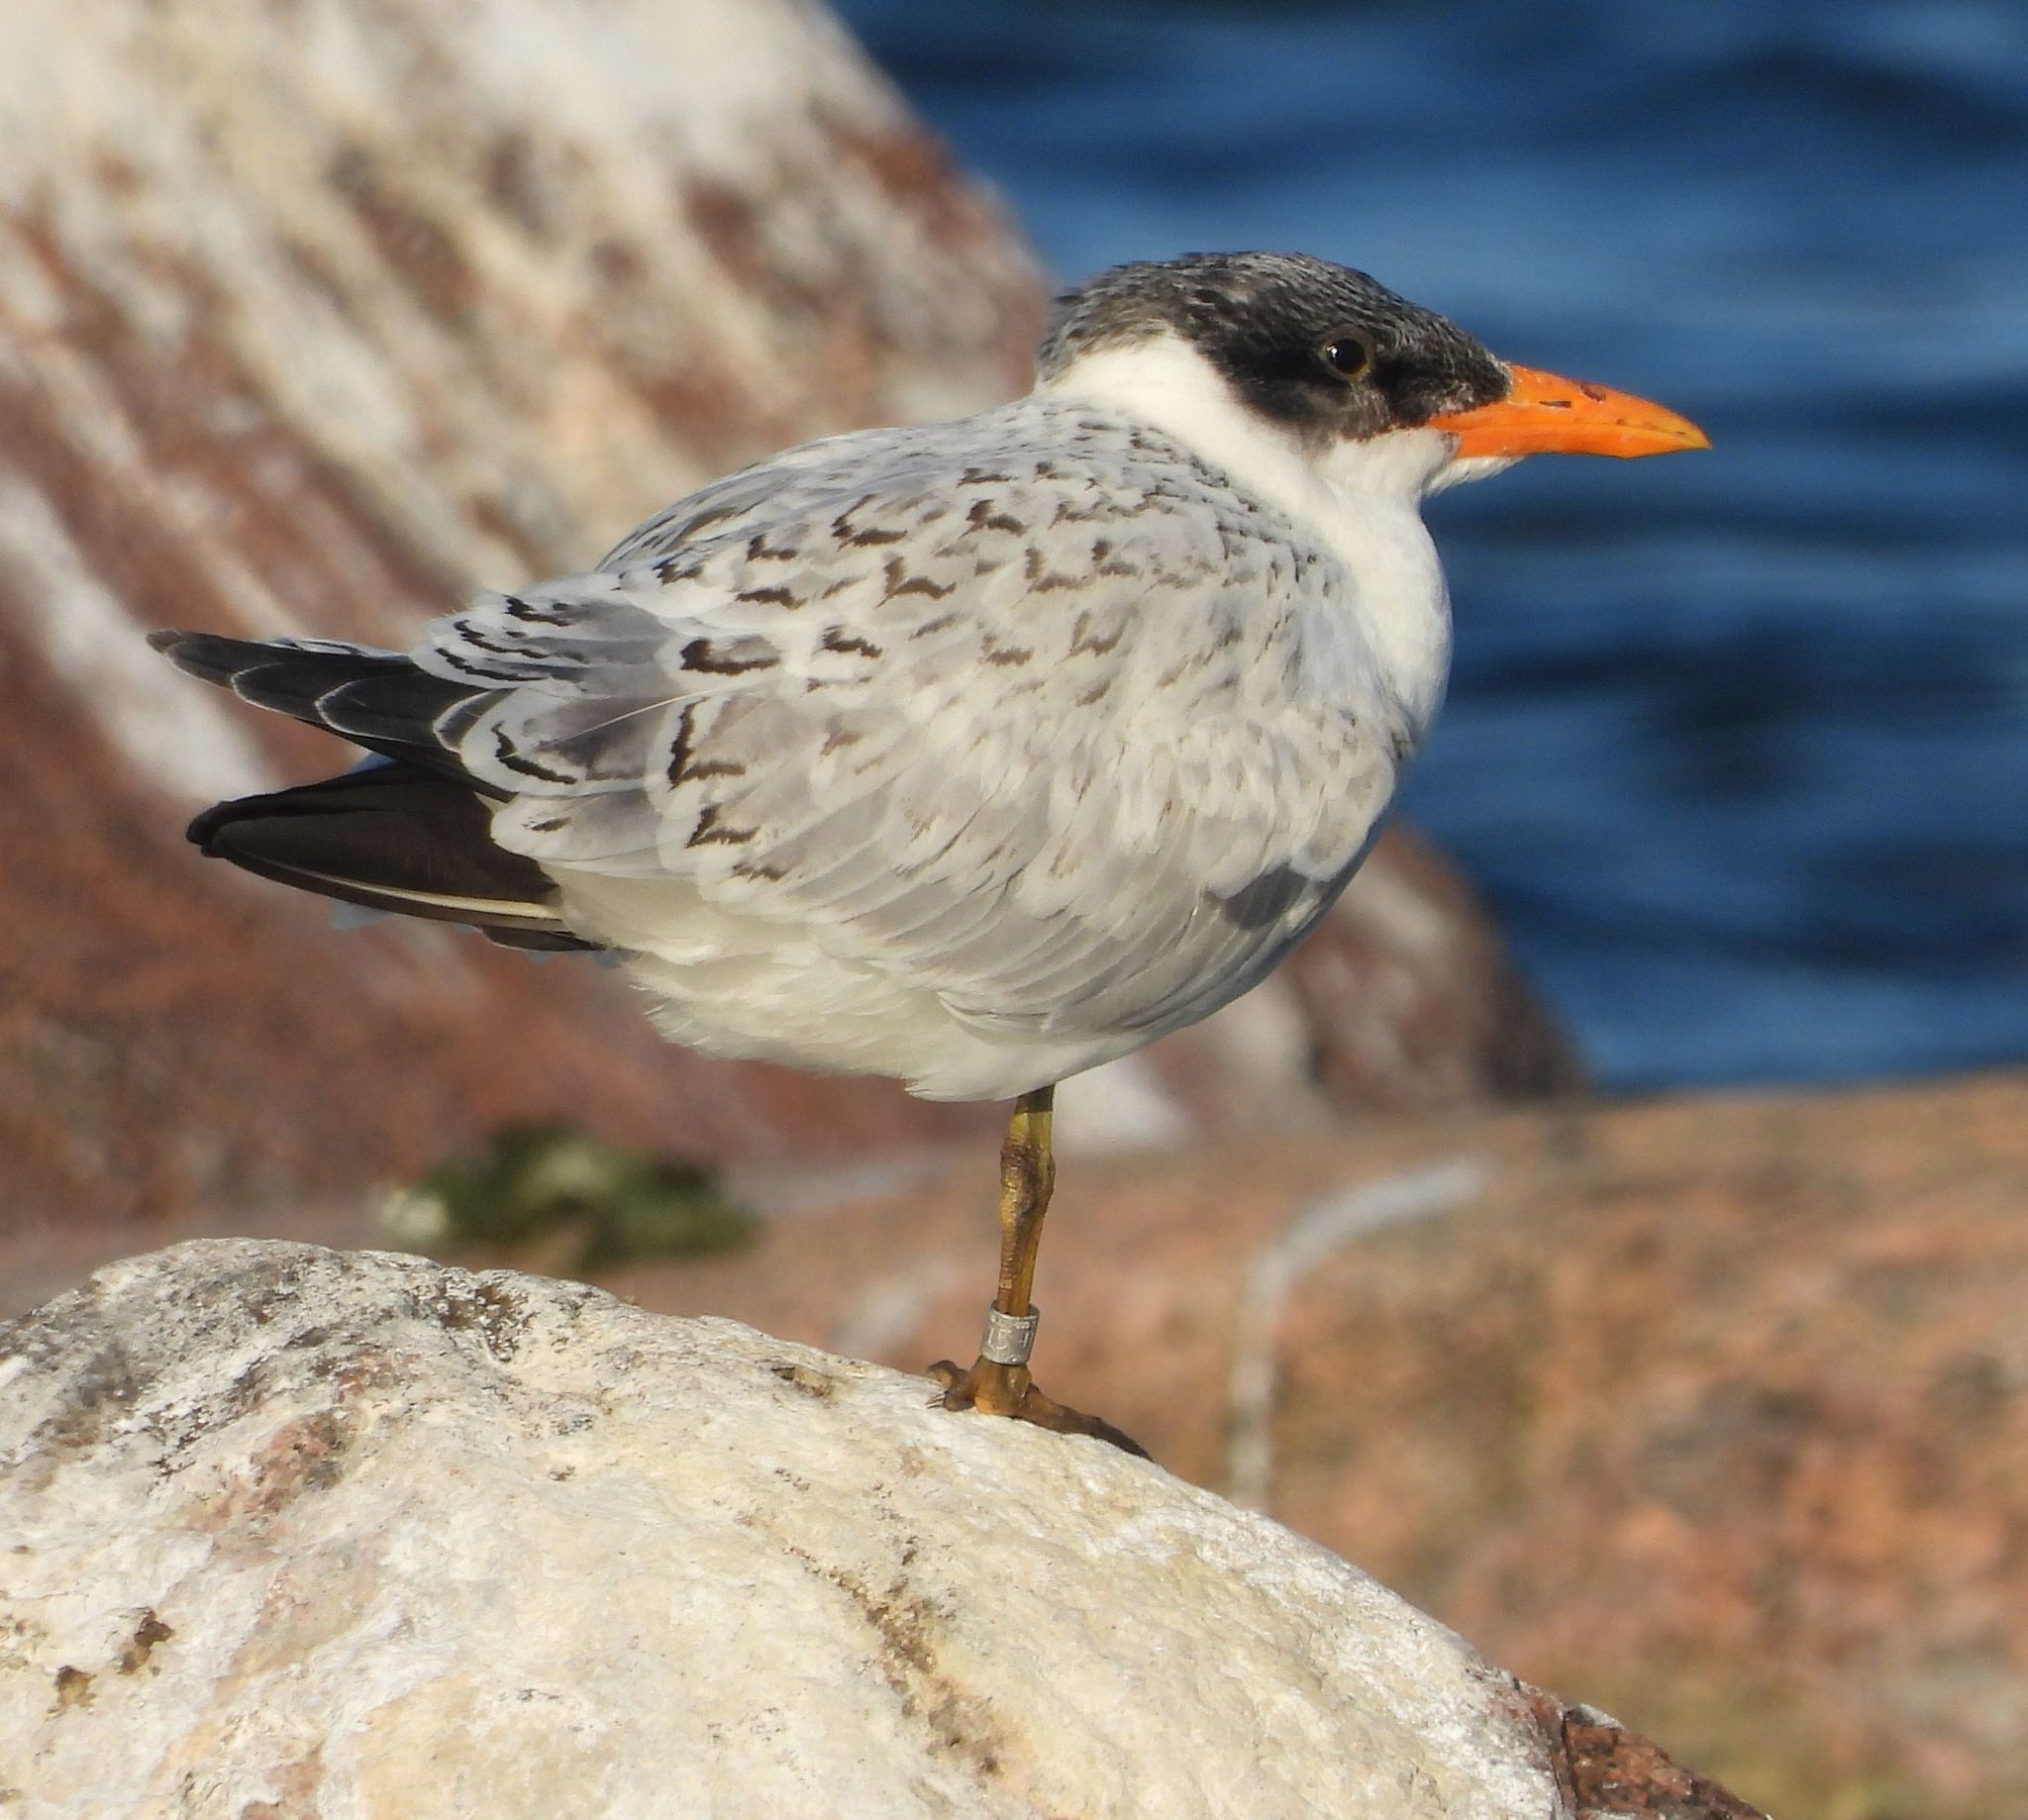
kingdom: Animalia
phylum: Chordata
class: Aves
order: Charadriiformes
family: Laridae
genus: Hydroprogne
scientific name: Hydroprogne caspia
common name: Caspian tern
